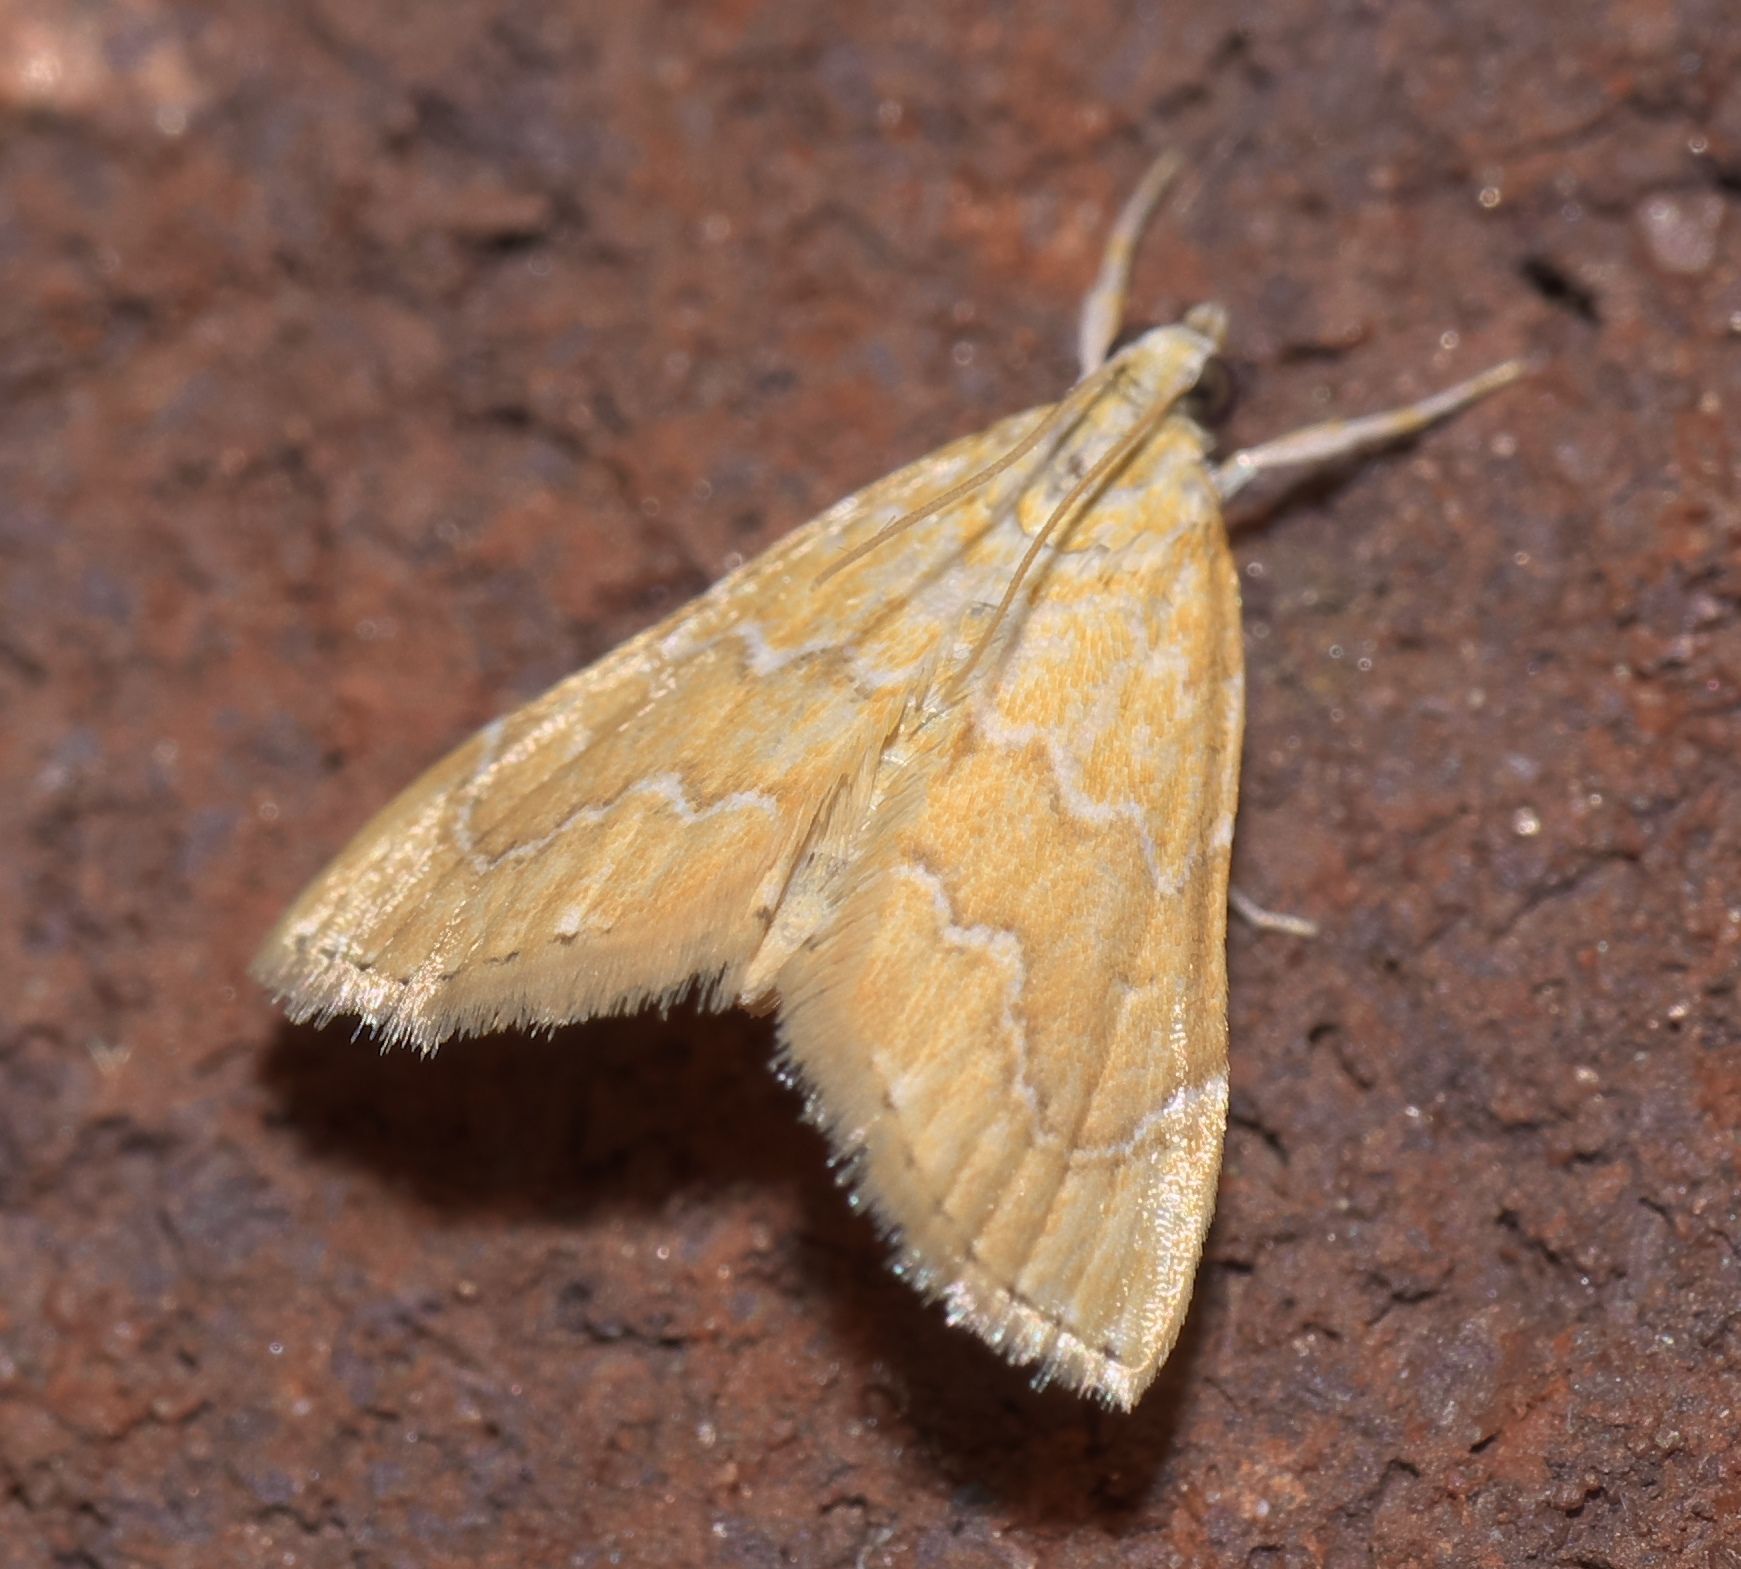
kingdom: Animalia
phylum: Arthropoda
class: Insecta
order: Lepidoptera
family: Crambidae
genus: Glaphyria
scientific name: Glaphyria sesquistrialis
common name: White-roped glaphyria
